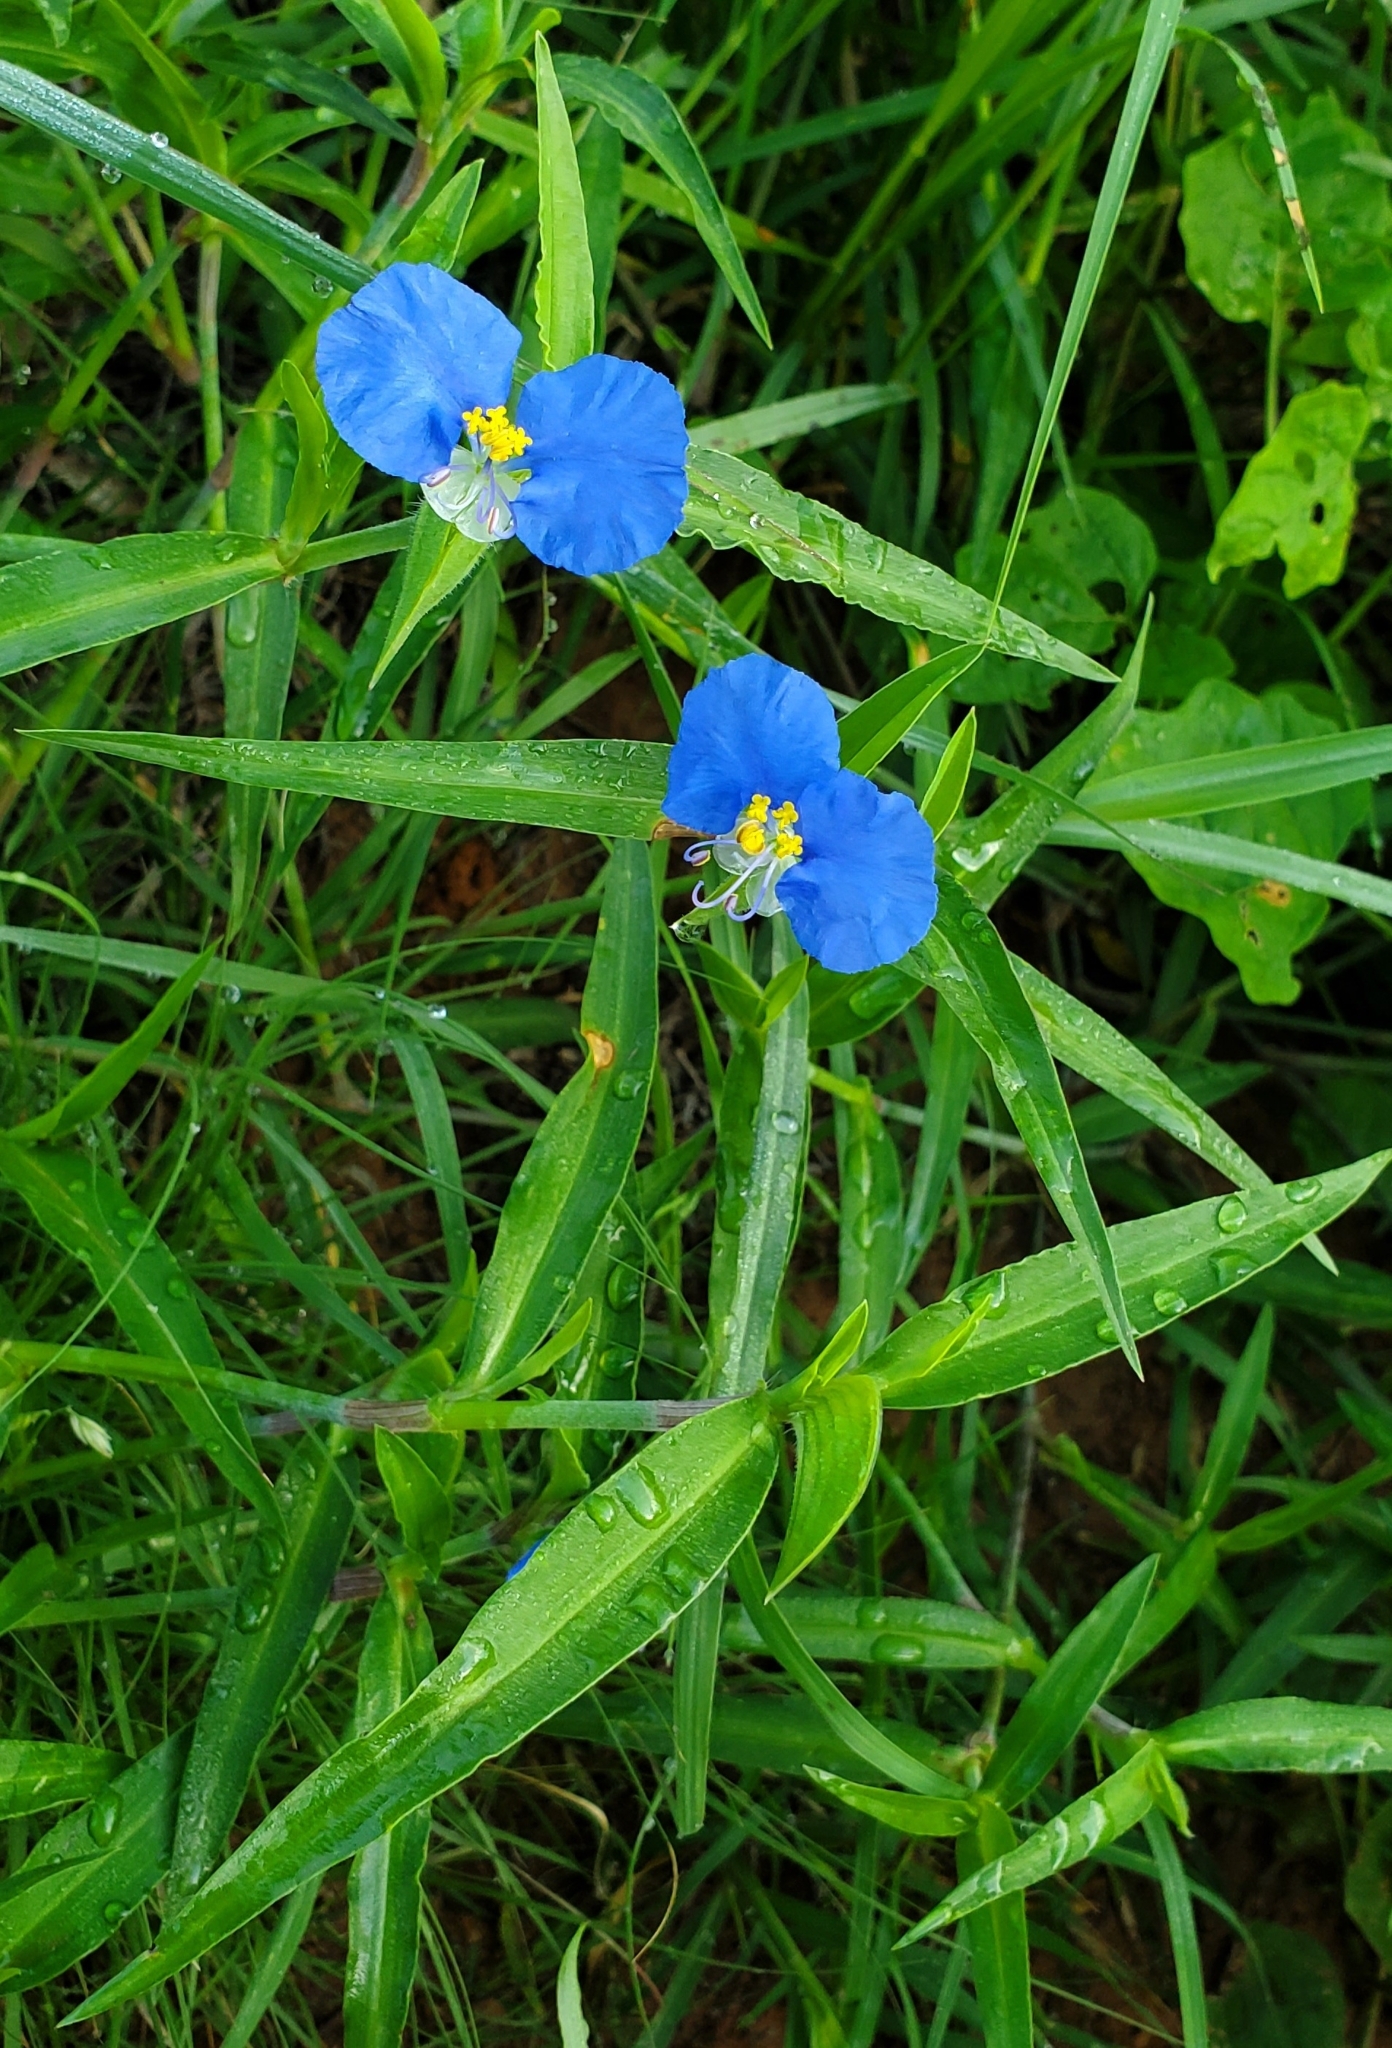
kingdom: Plantae
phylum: Tracheophyta
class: Liliopsida
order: Commelinales
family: Commelinaceae
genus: Commelina
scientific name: Commelina erecta
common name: Blousel blommetjie
